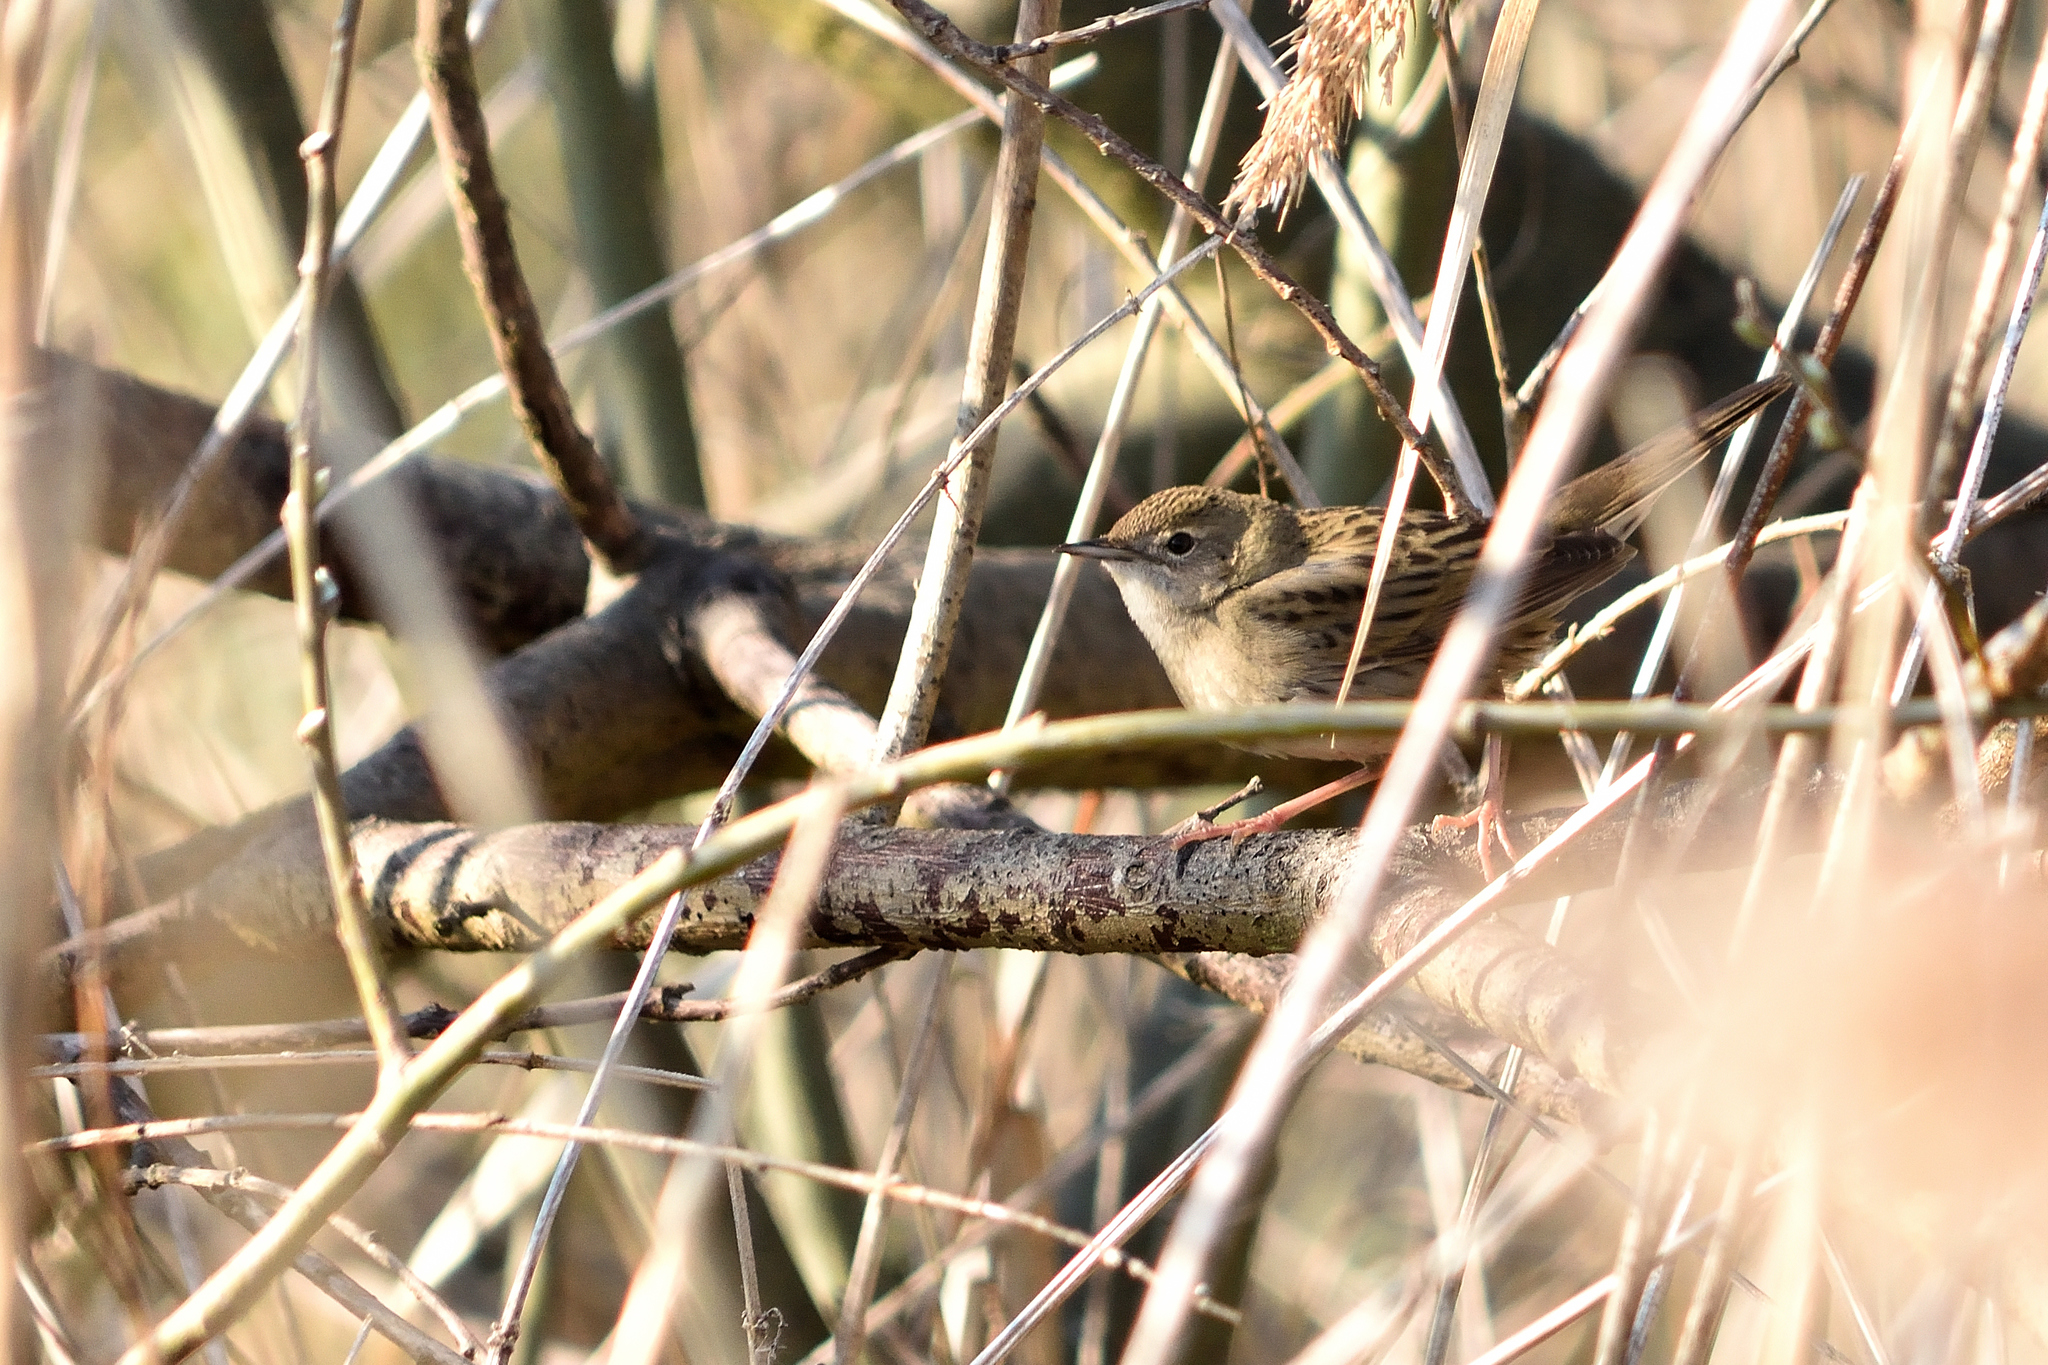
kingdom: Animalia
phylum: Chordata
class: Aves
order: Passeriformes
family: Locustellidae
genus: Locustella
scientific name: Locustella naevia
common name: Common grasshopper warbler
